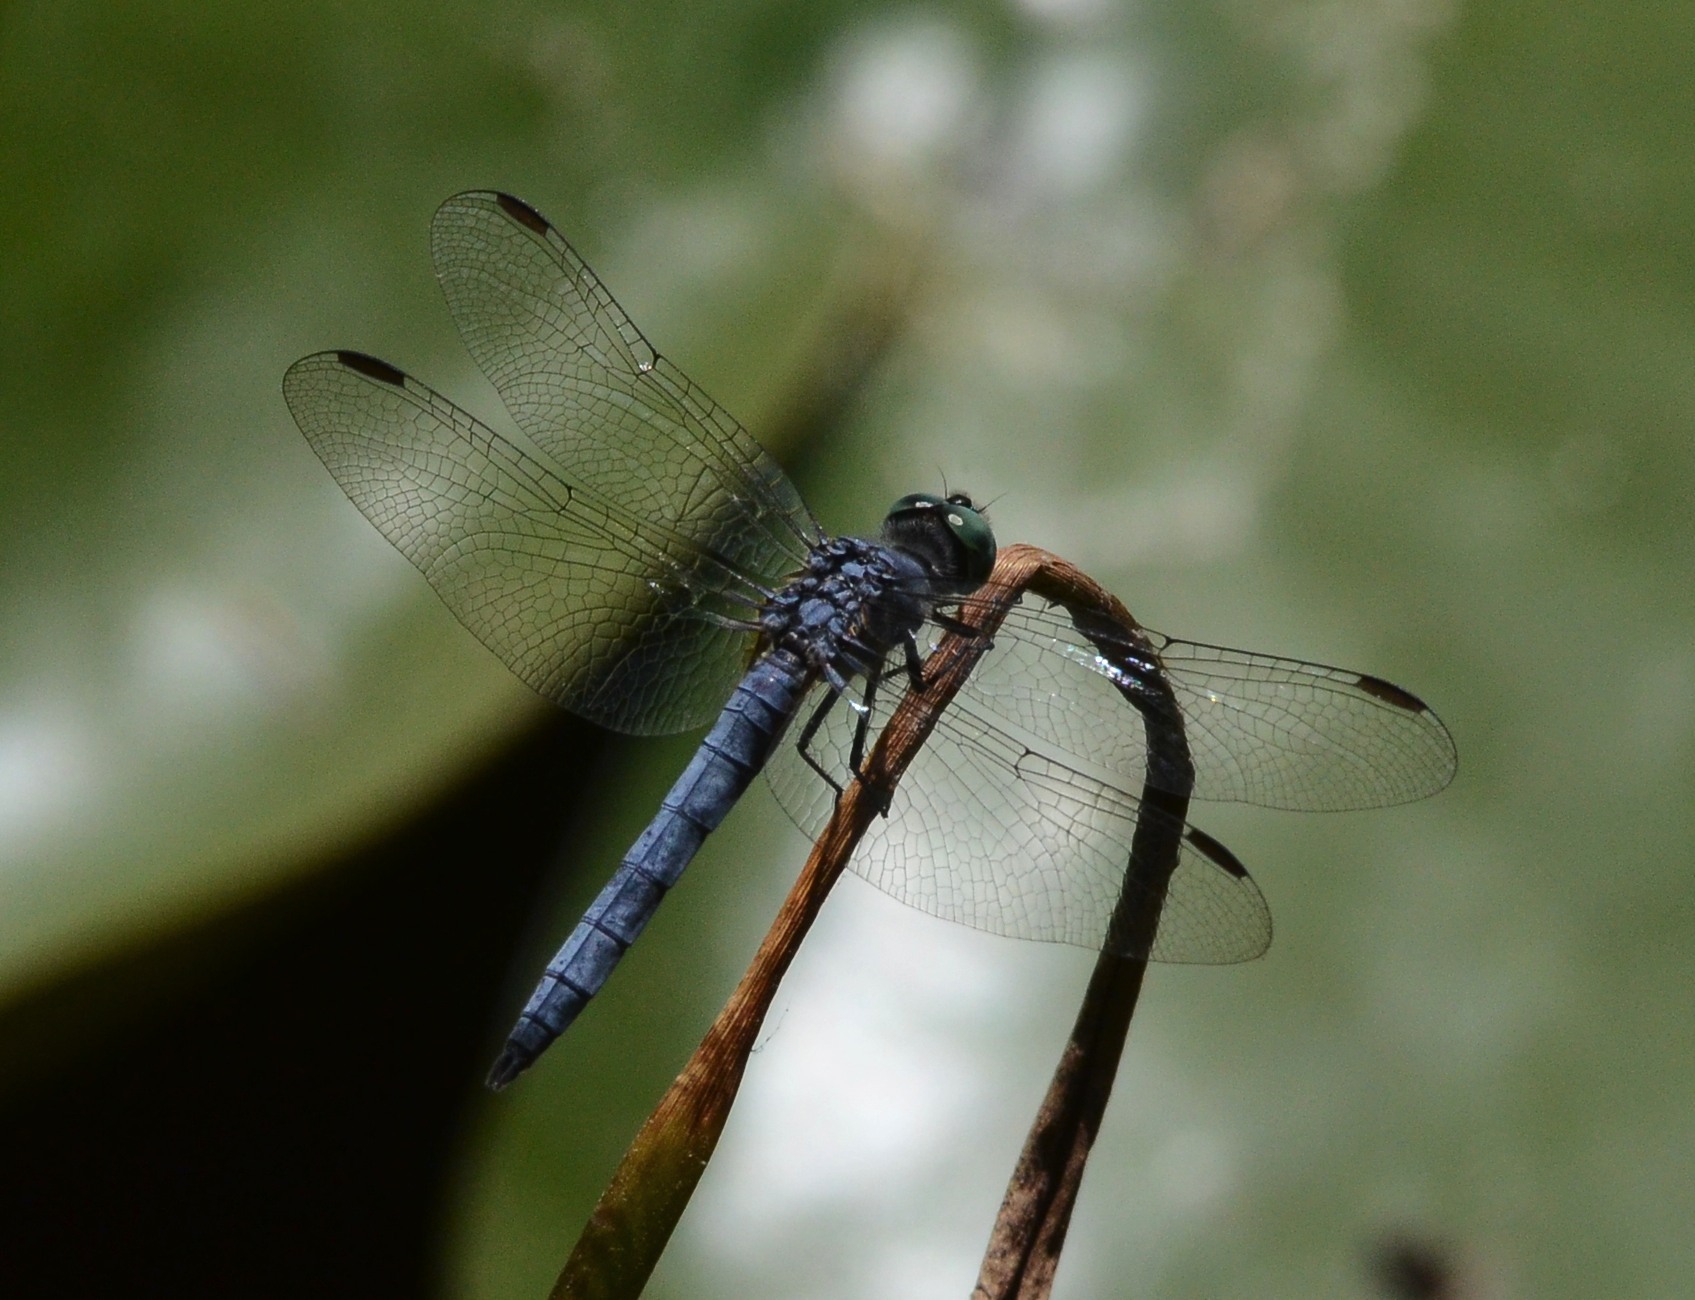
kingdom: Animalia
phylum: Arthropoda
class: Insecta
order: Odonata
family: Libellulidae
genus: Pachydiplax
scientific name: Pachydiplax longipennis
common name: Blue dasher
